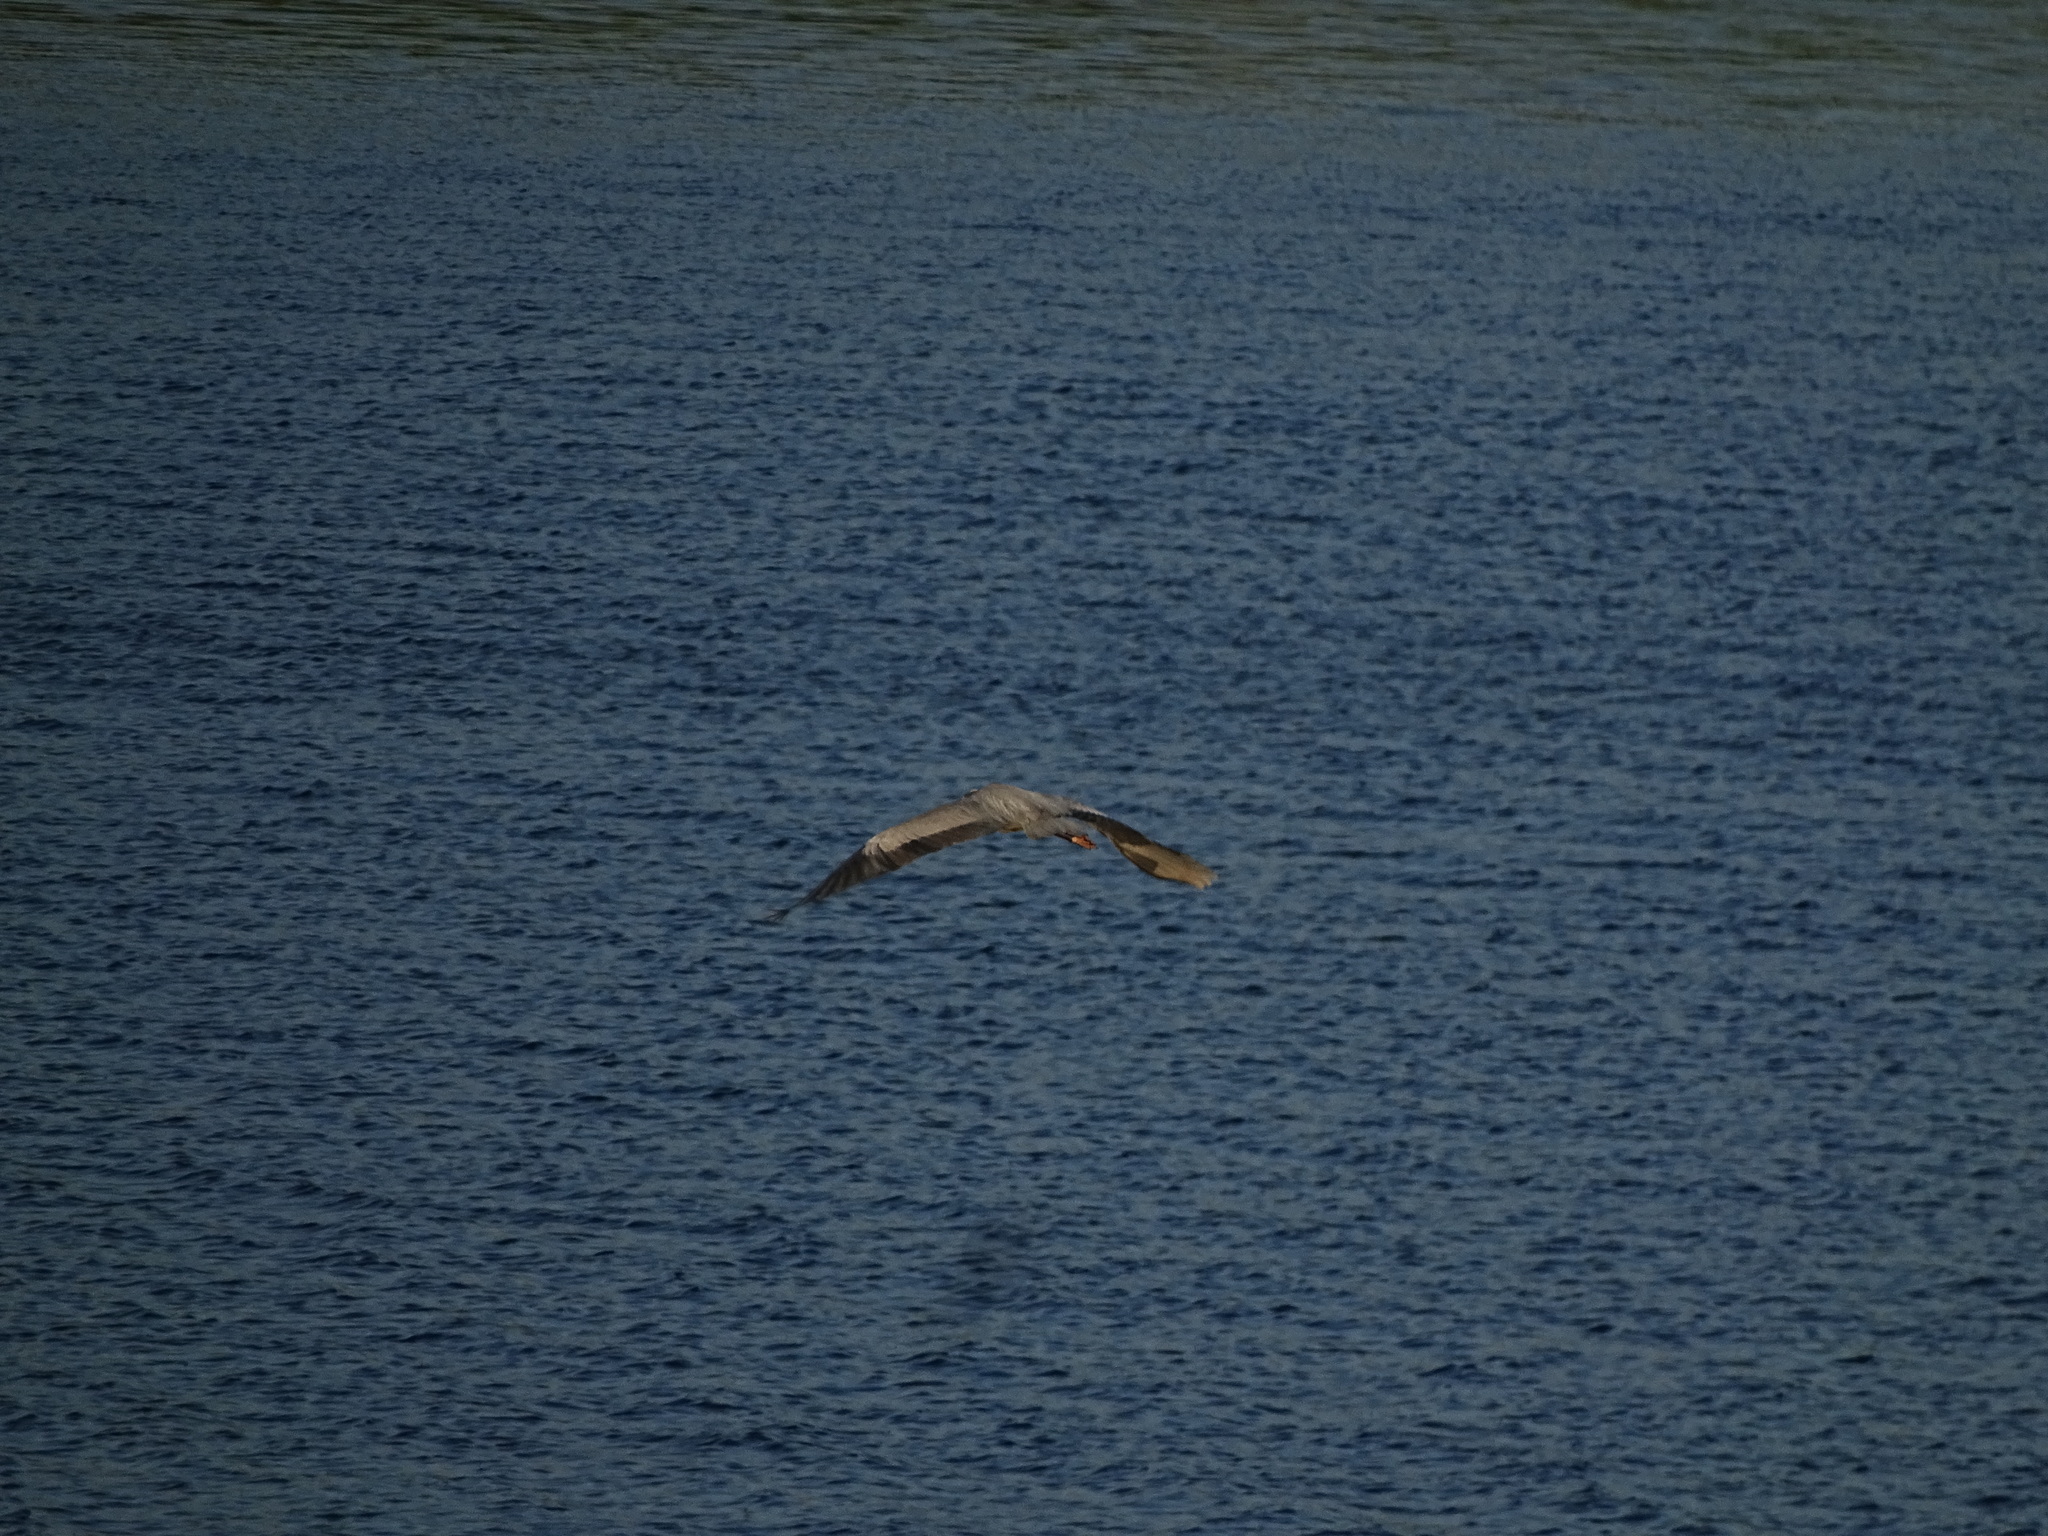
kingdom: Animalia
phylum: Chordata
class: Aves
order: Pelecaniformes
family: Ardeidae
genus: Ardea
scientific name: Ardea cinerea
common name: Grey heron
